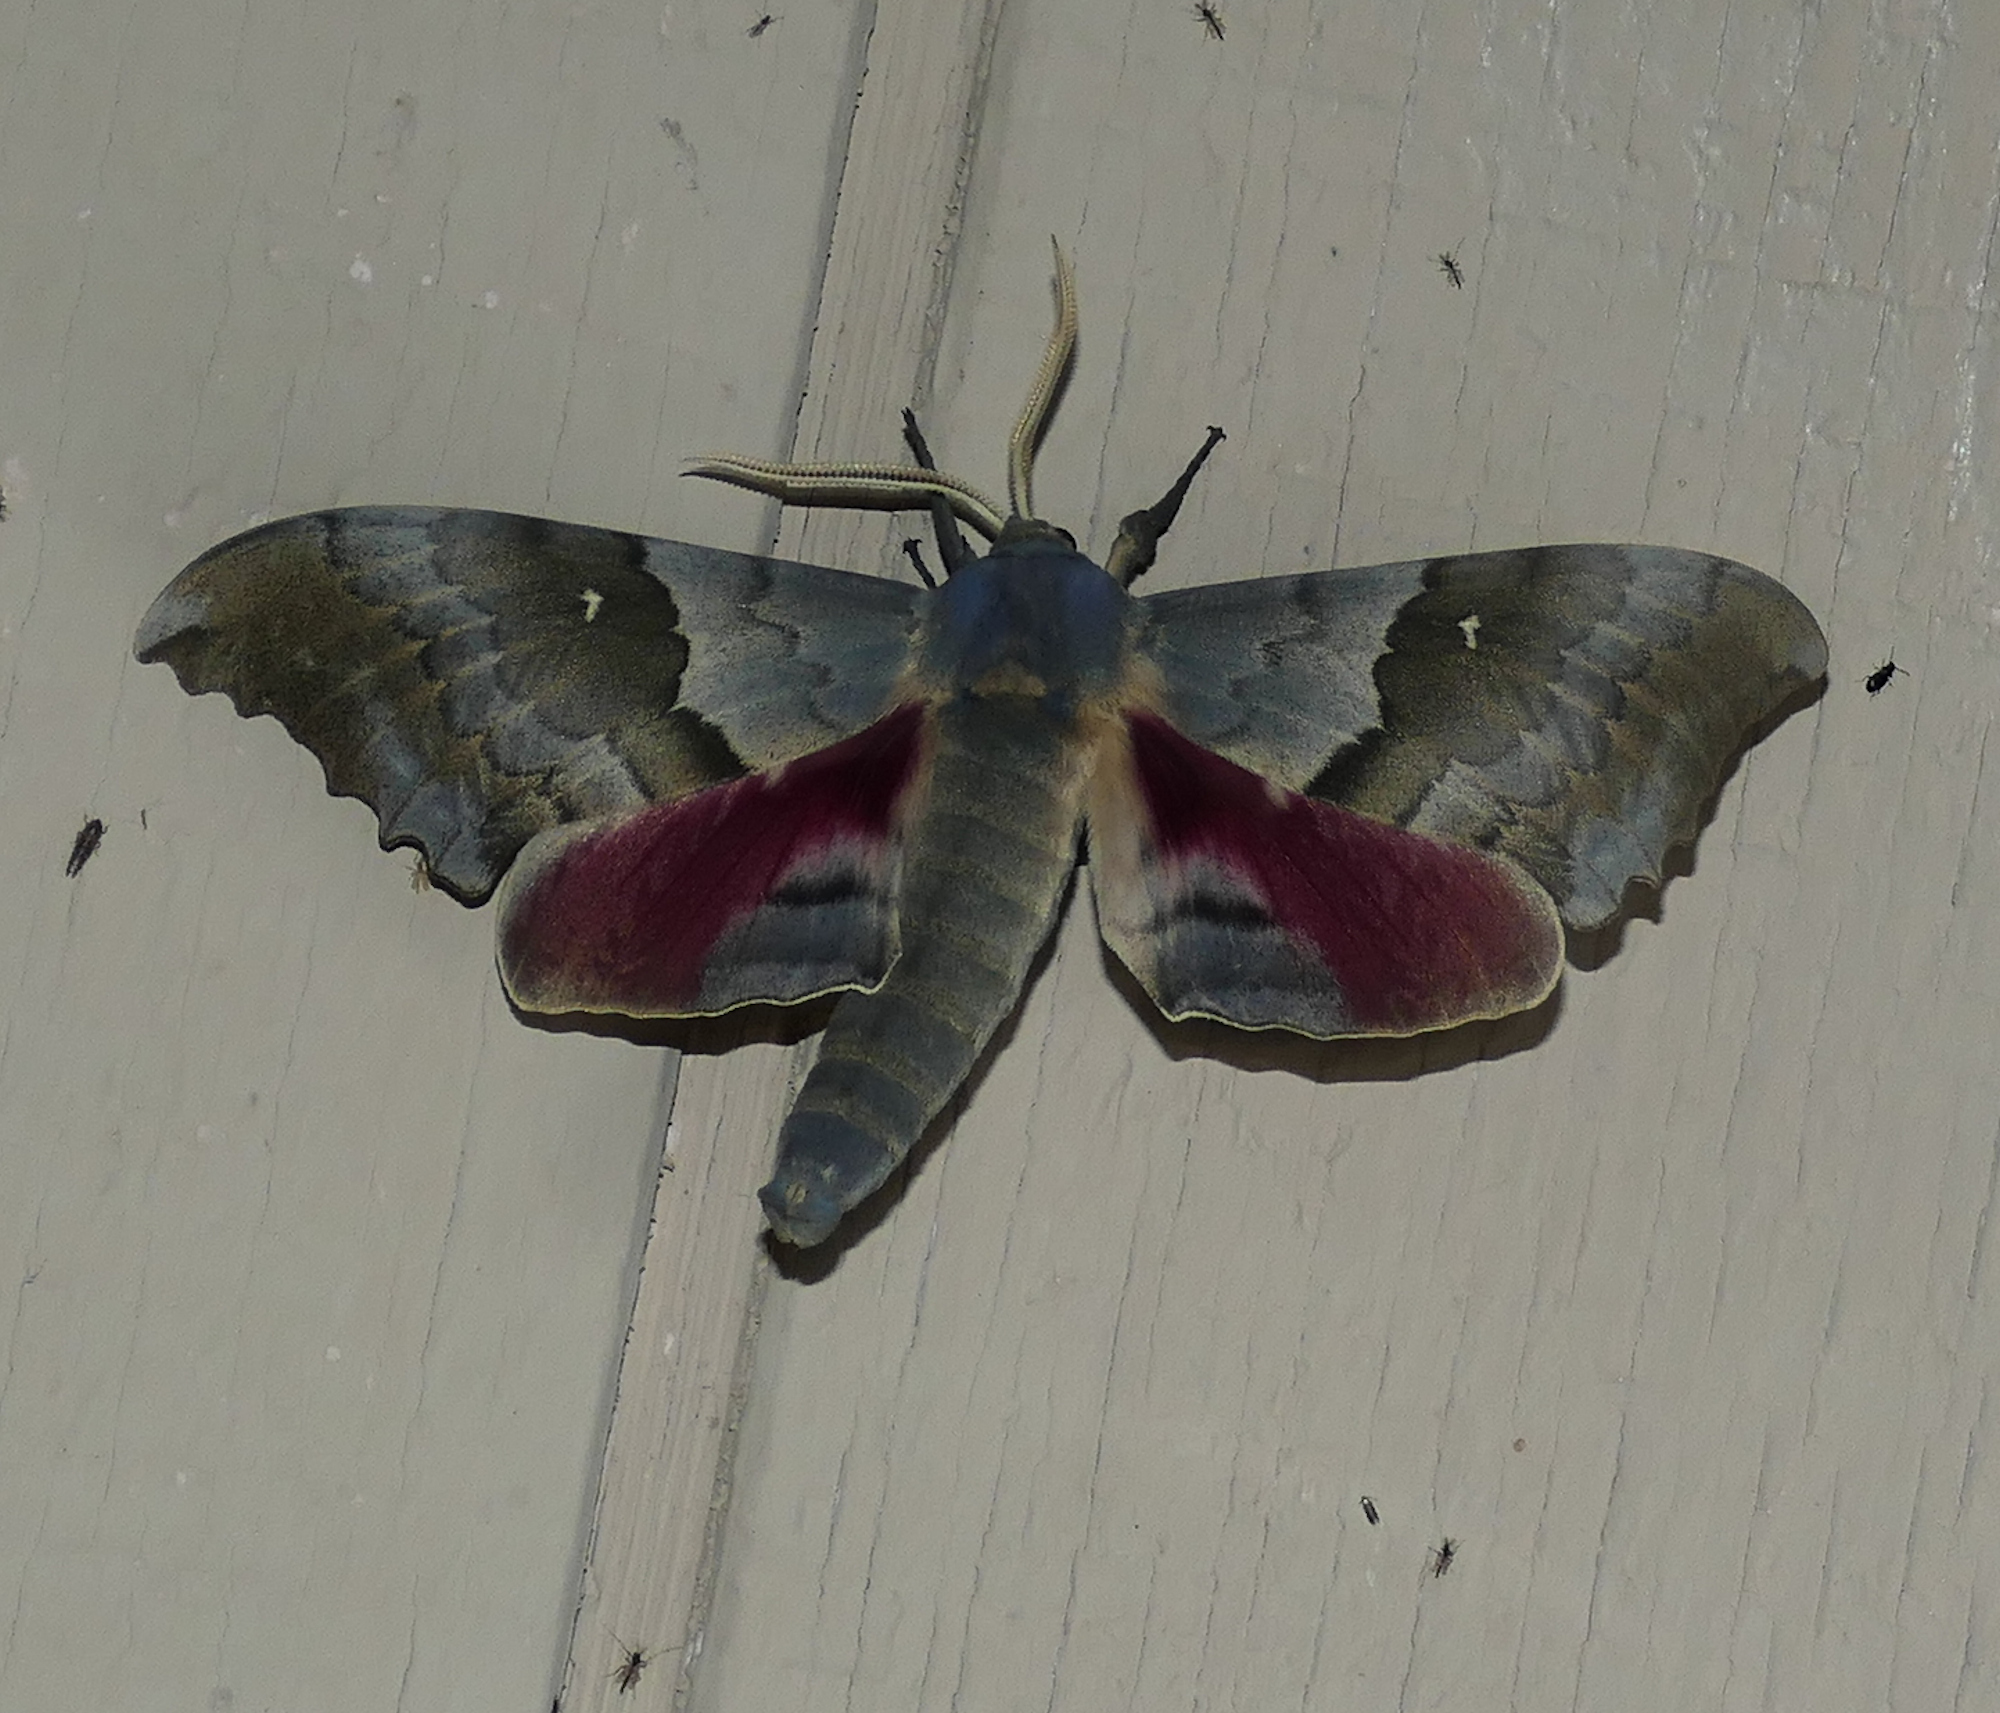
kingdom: Animalia
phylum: Arthropoda
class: Insecta
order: Lepidoptera
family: Sphingidae
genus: Pachysphinx
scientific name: Pachysphinx occidentalis
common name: Western poplar sphinx
